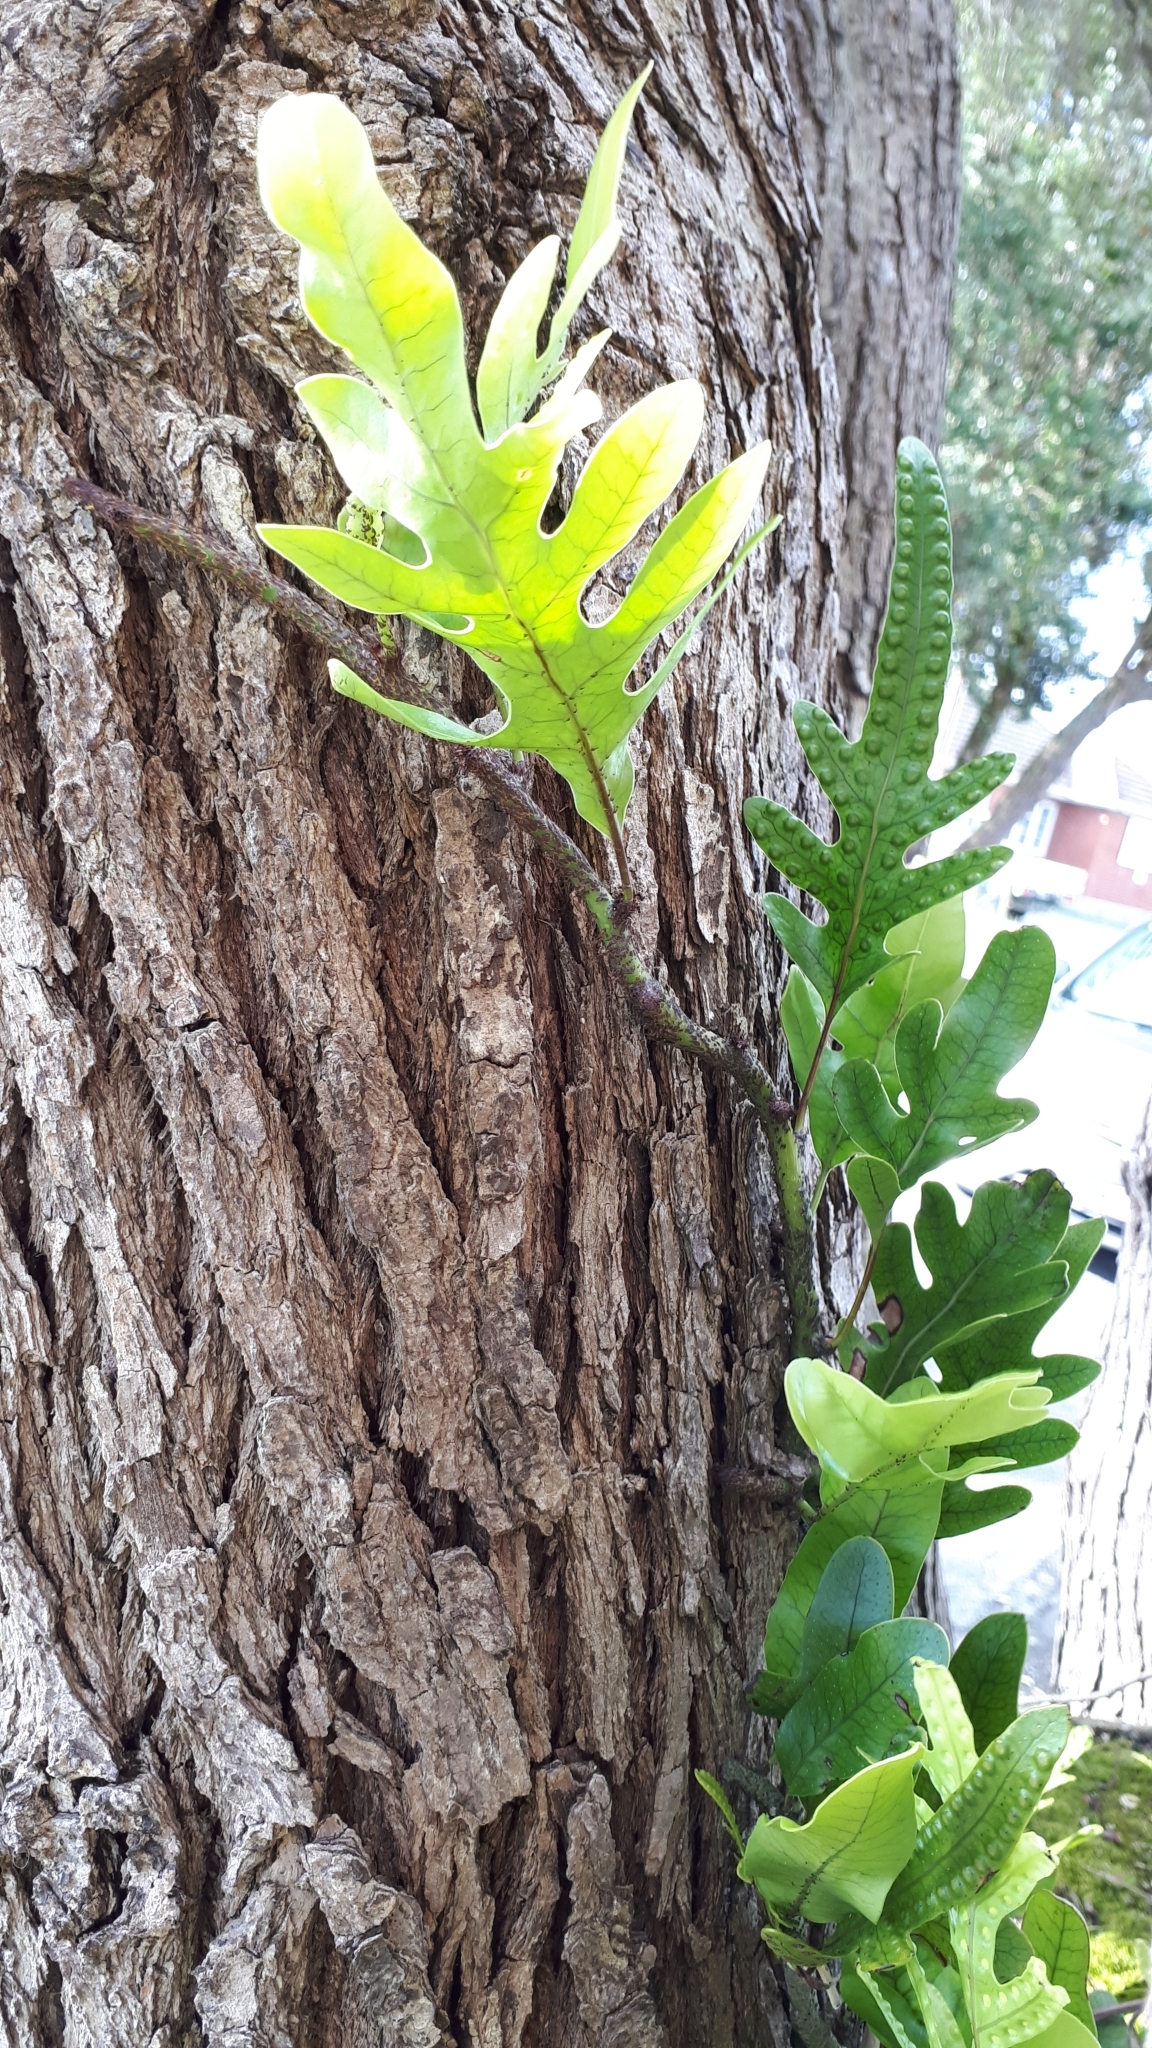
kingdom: Plantae
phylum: Tracheophyta
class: Polypodiopsida
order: Polypodiales
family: Polypodiaceae
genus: Lecanopteris
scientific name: Lecanopteris pustulata
